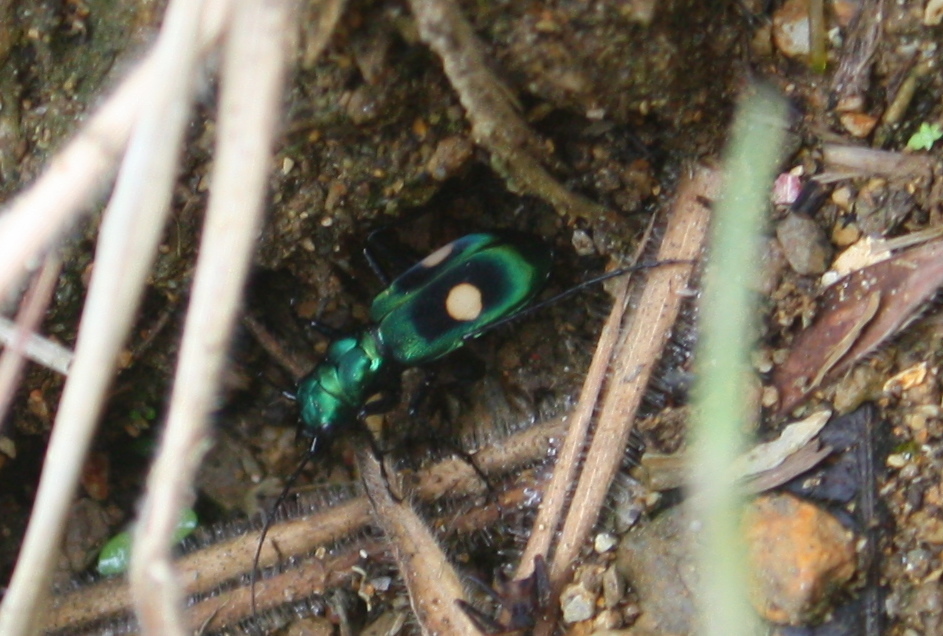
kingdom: Animalia
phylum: Arthropoda
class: Insecta
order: Coleoptera
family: Carabidae
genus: Pseudoxycheila
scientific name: Pseudoxycheila bipustulata
